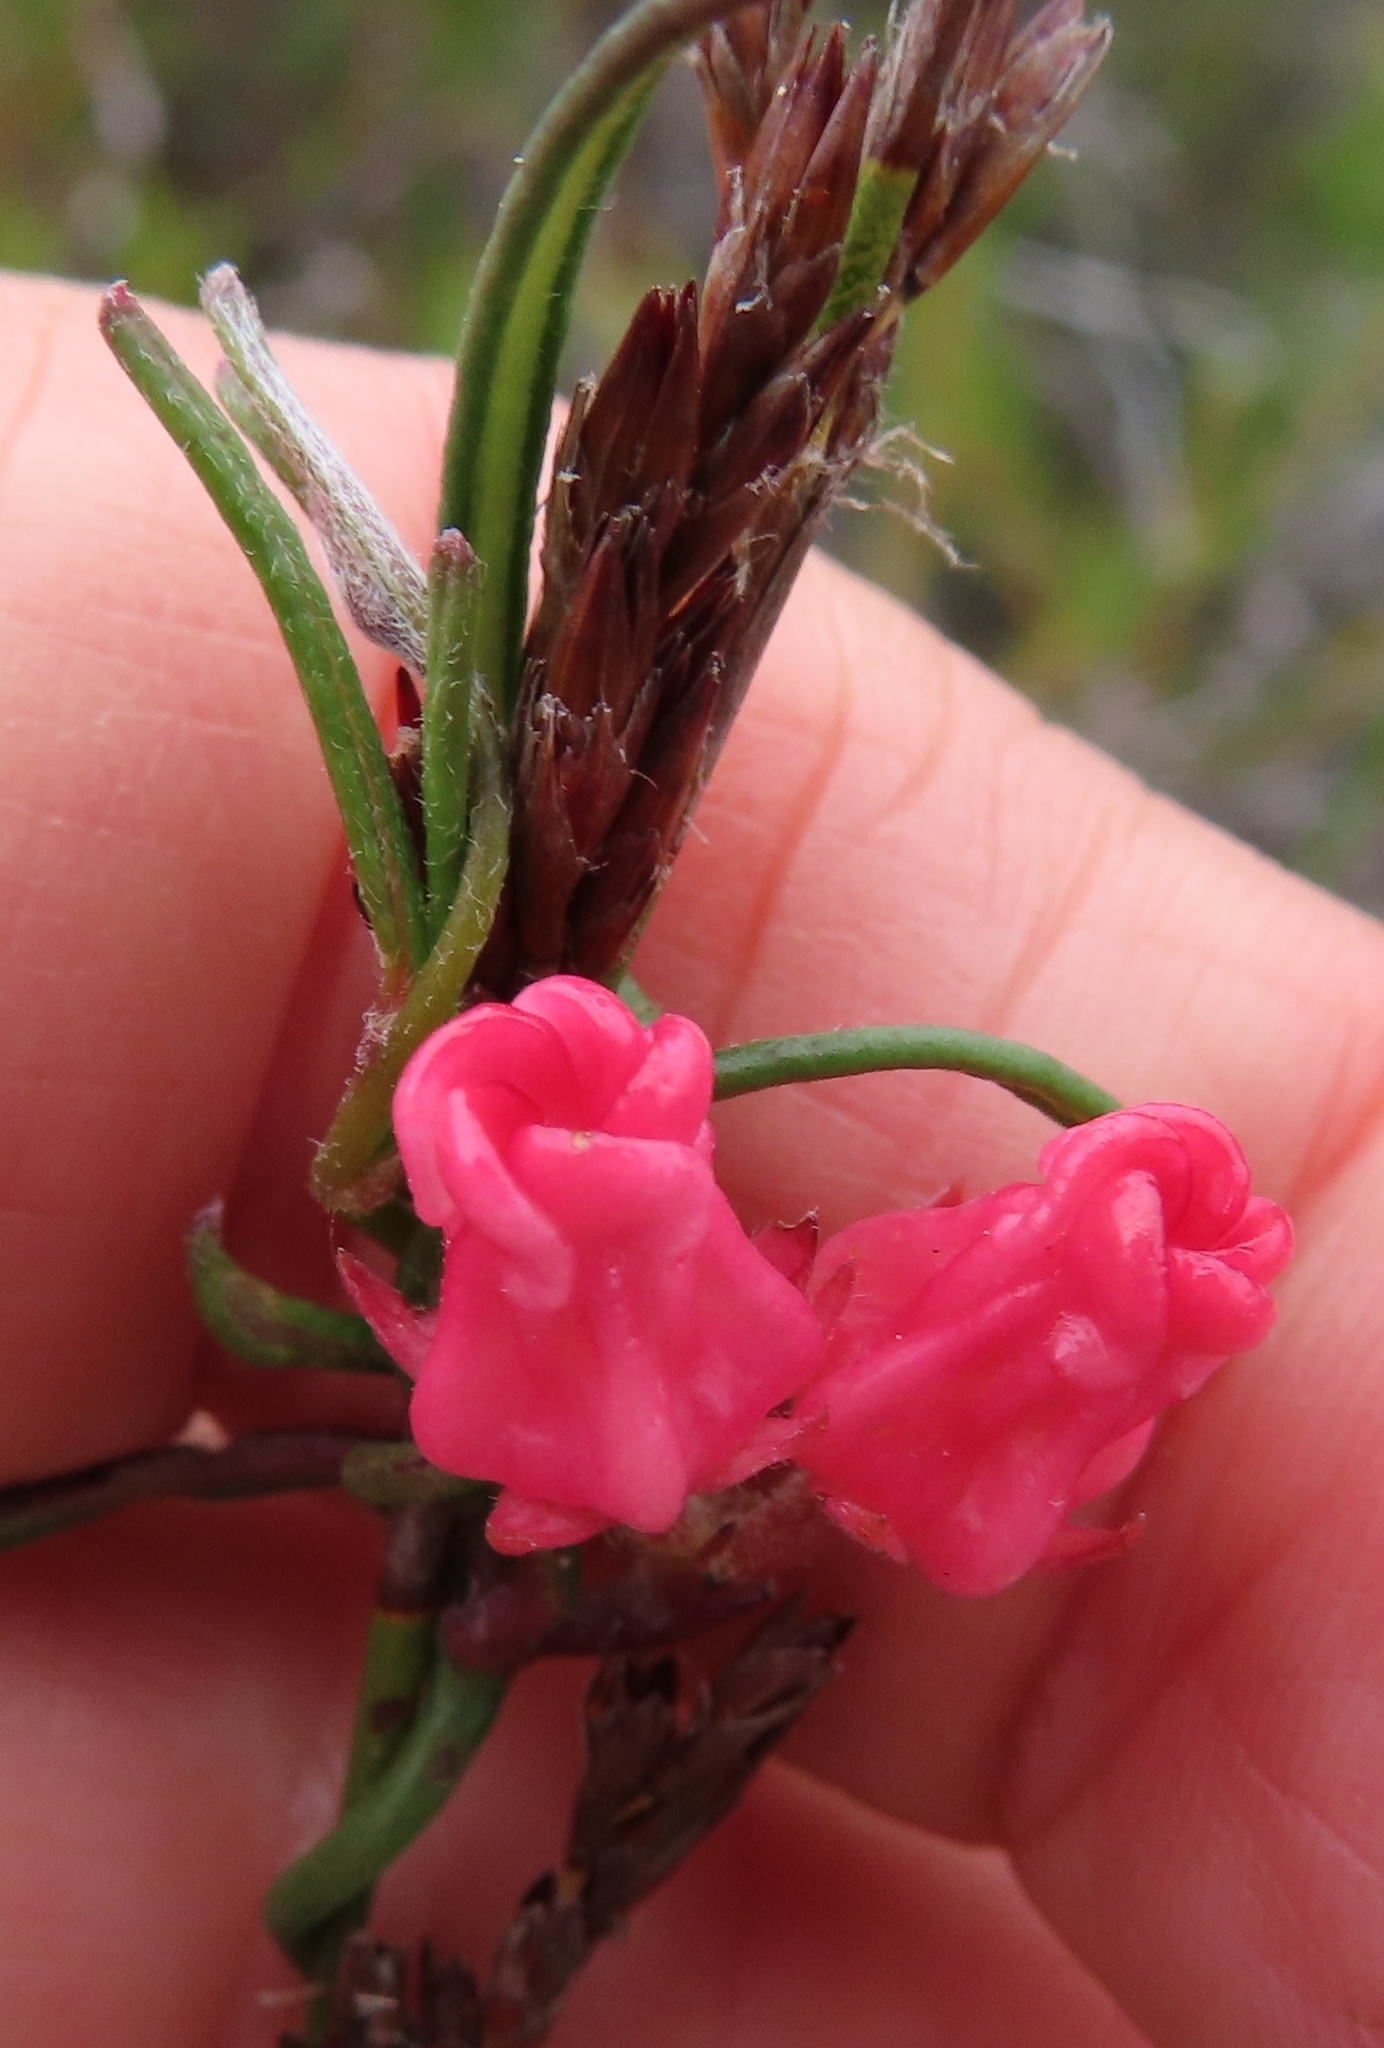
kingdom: Plantae
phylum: Tracheophyta
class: Magnoliopsida
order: Gentianales
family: Apocynaceae
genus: Microloma
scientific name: Microloma tenuifolium
